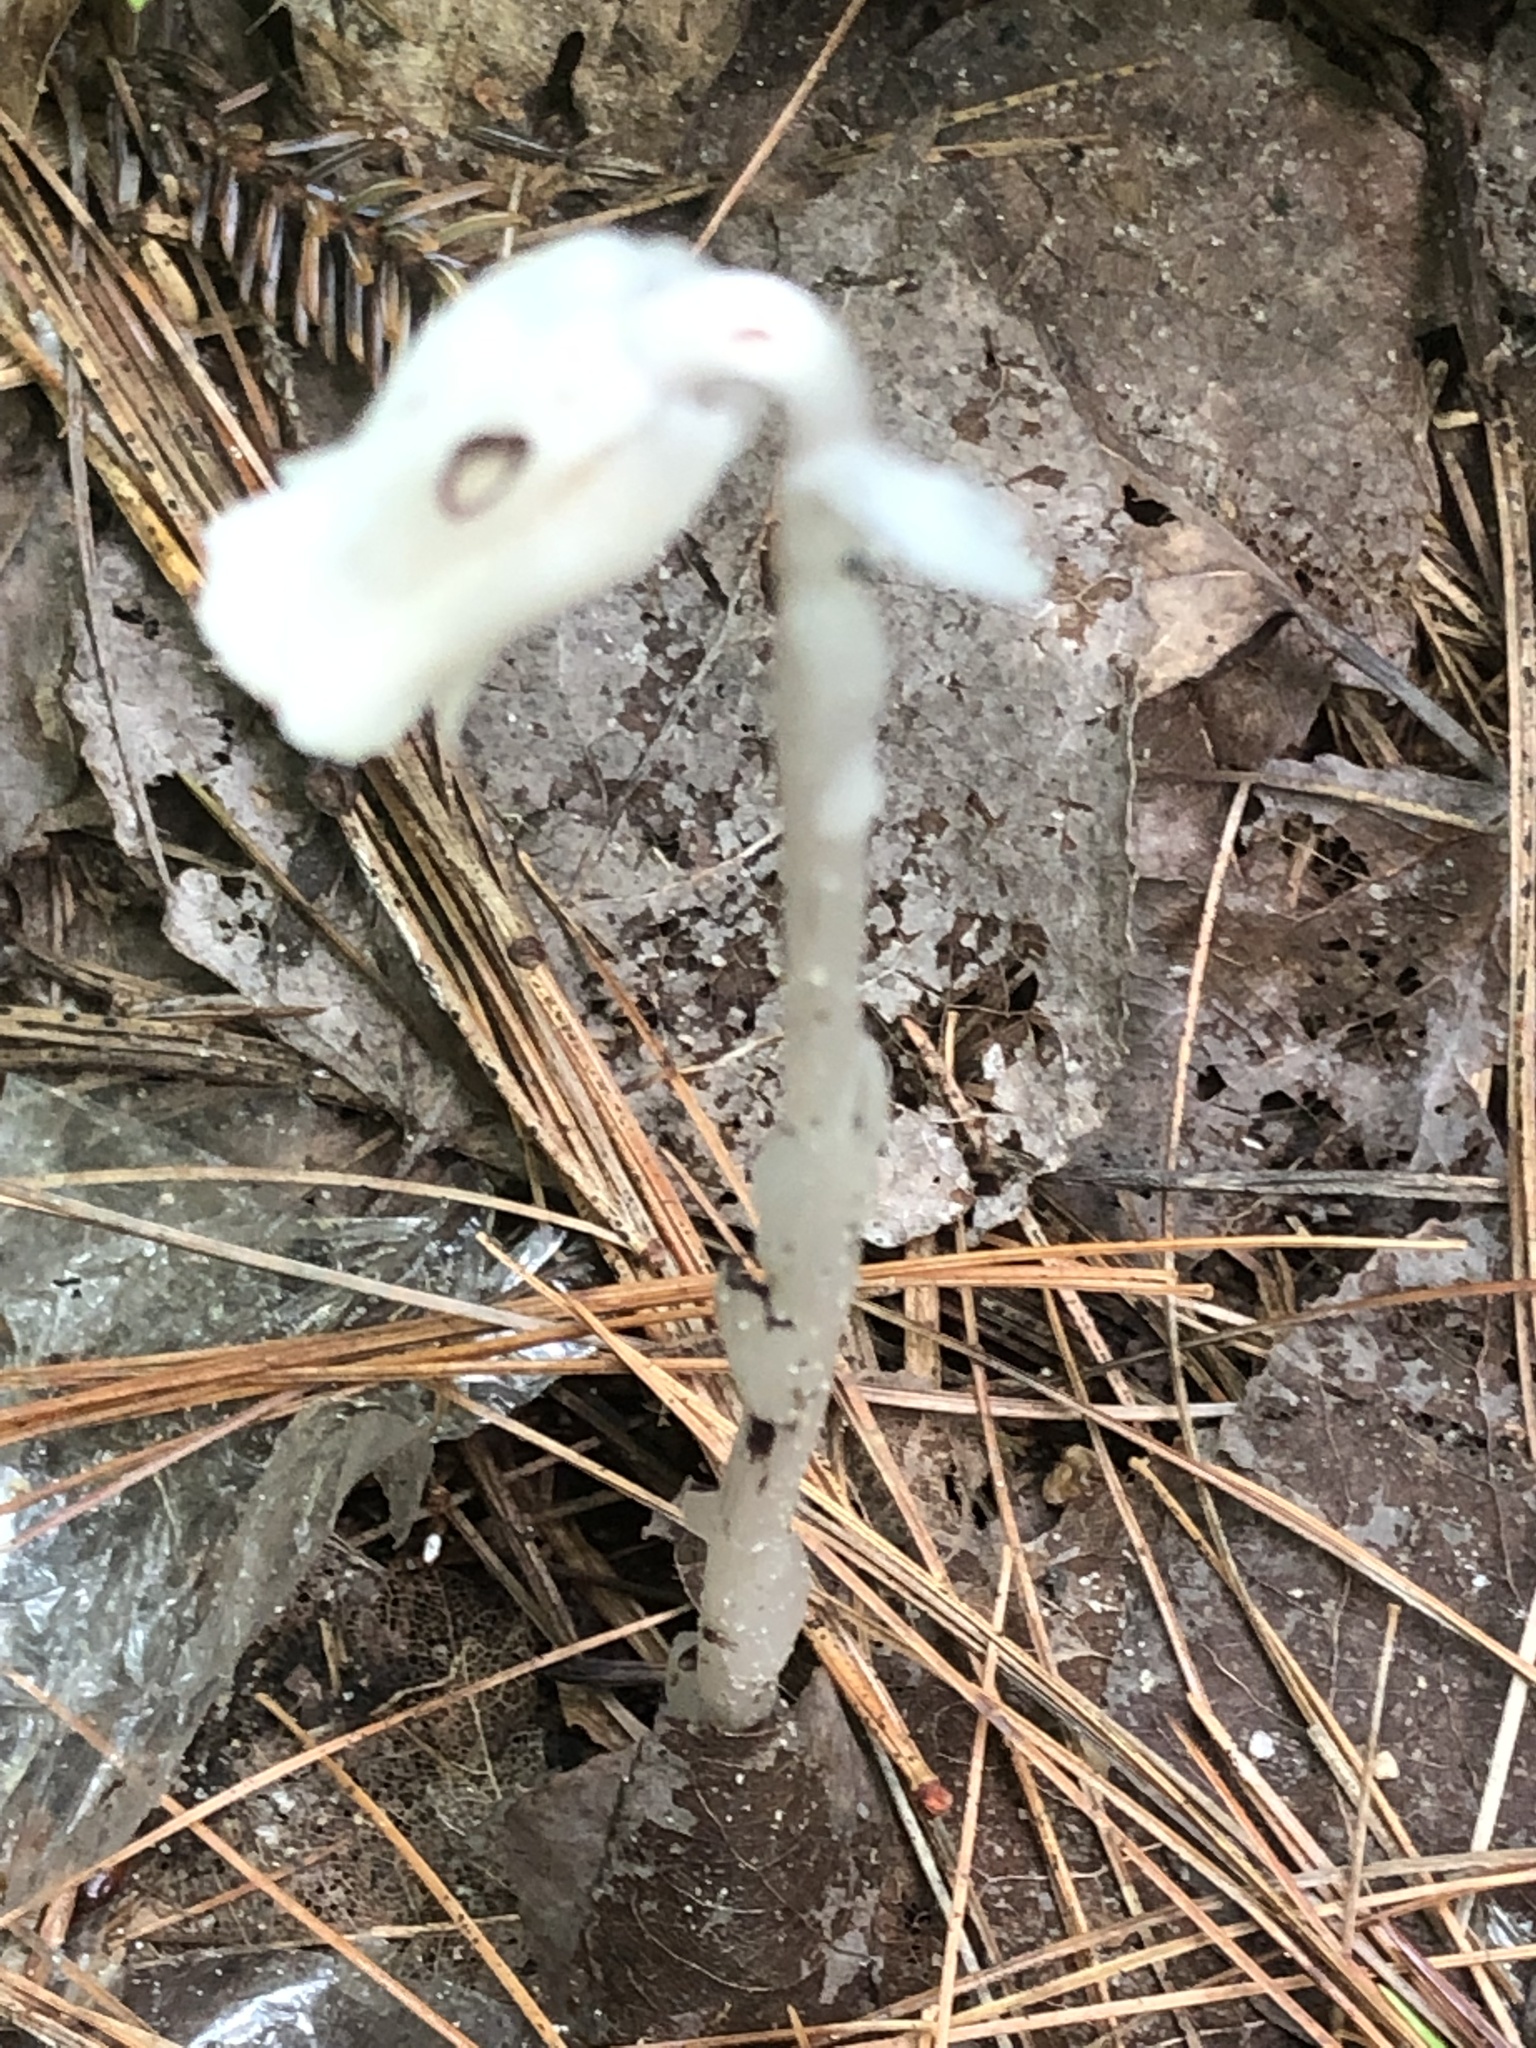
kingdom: Plantae
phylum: Tracheophyta
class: Magnoliopsida
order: Ericales
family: Ericaceae
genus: Monotropa
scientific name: Monotropa uniflora
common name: Convulsion root
